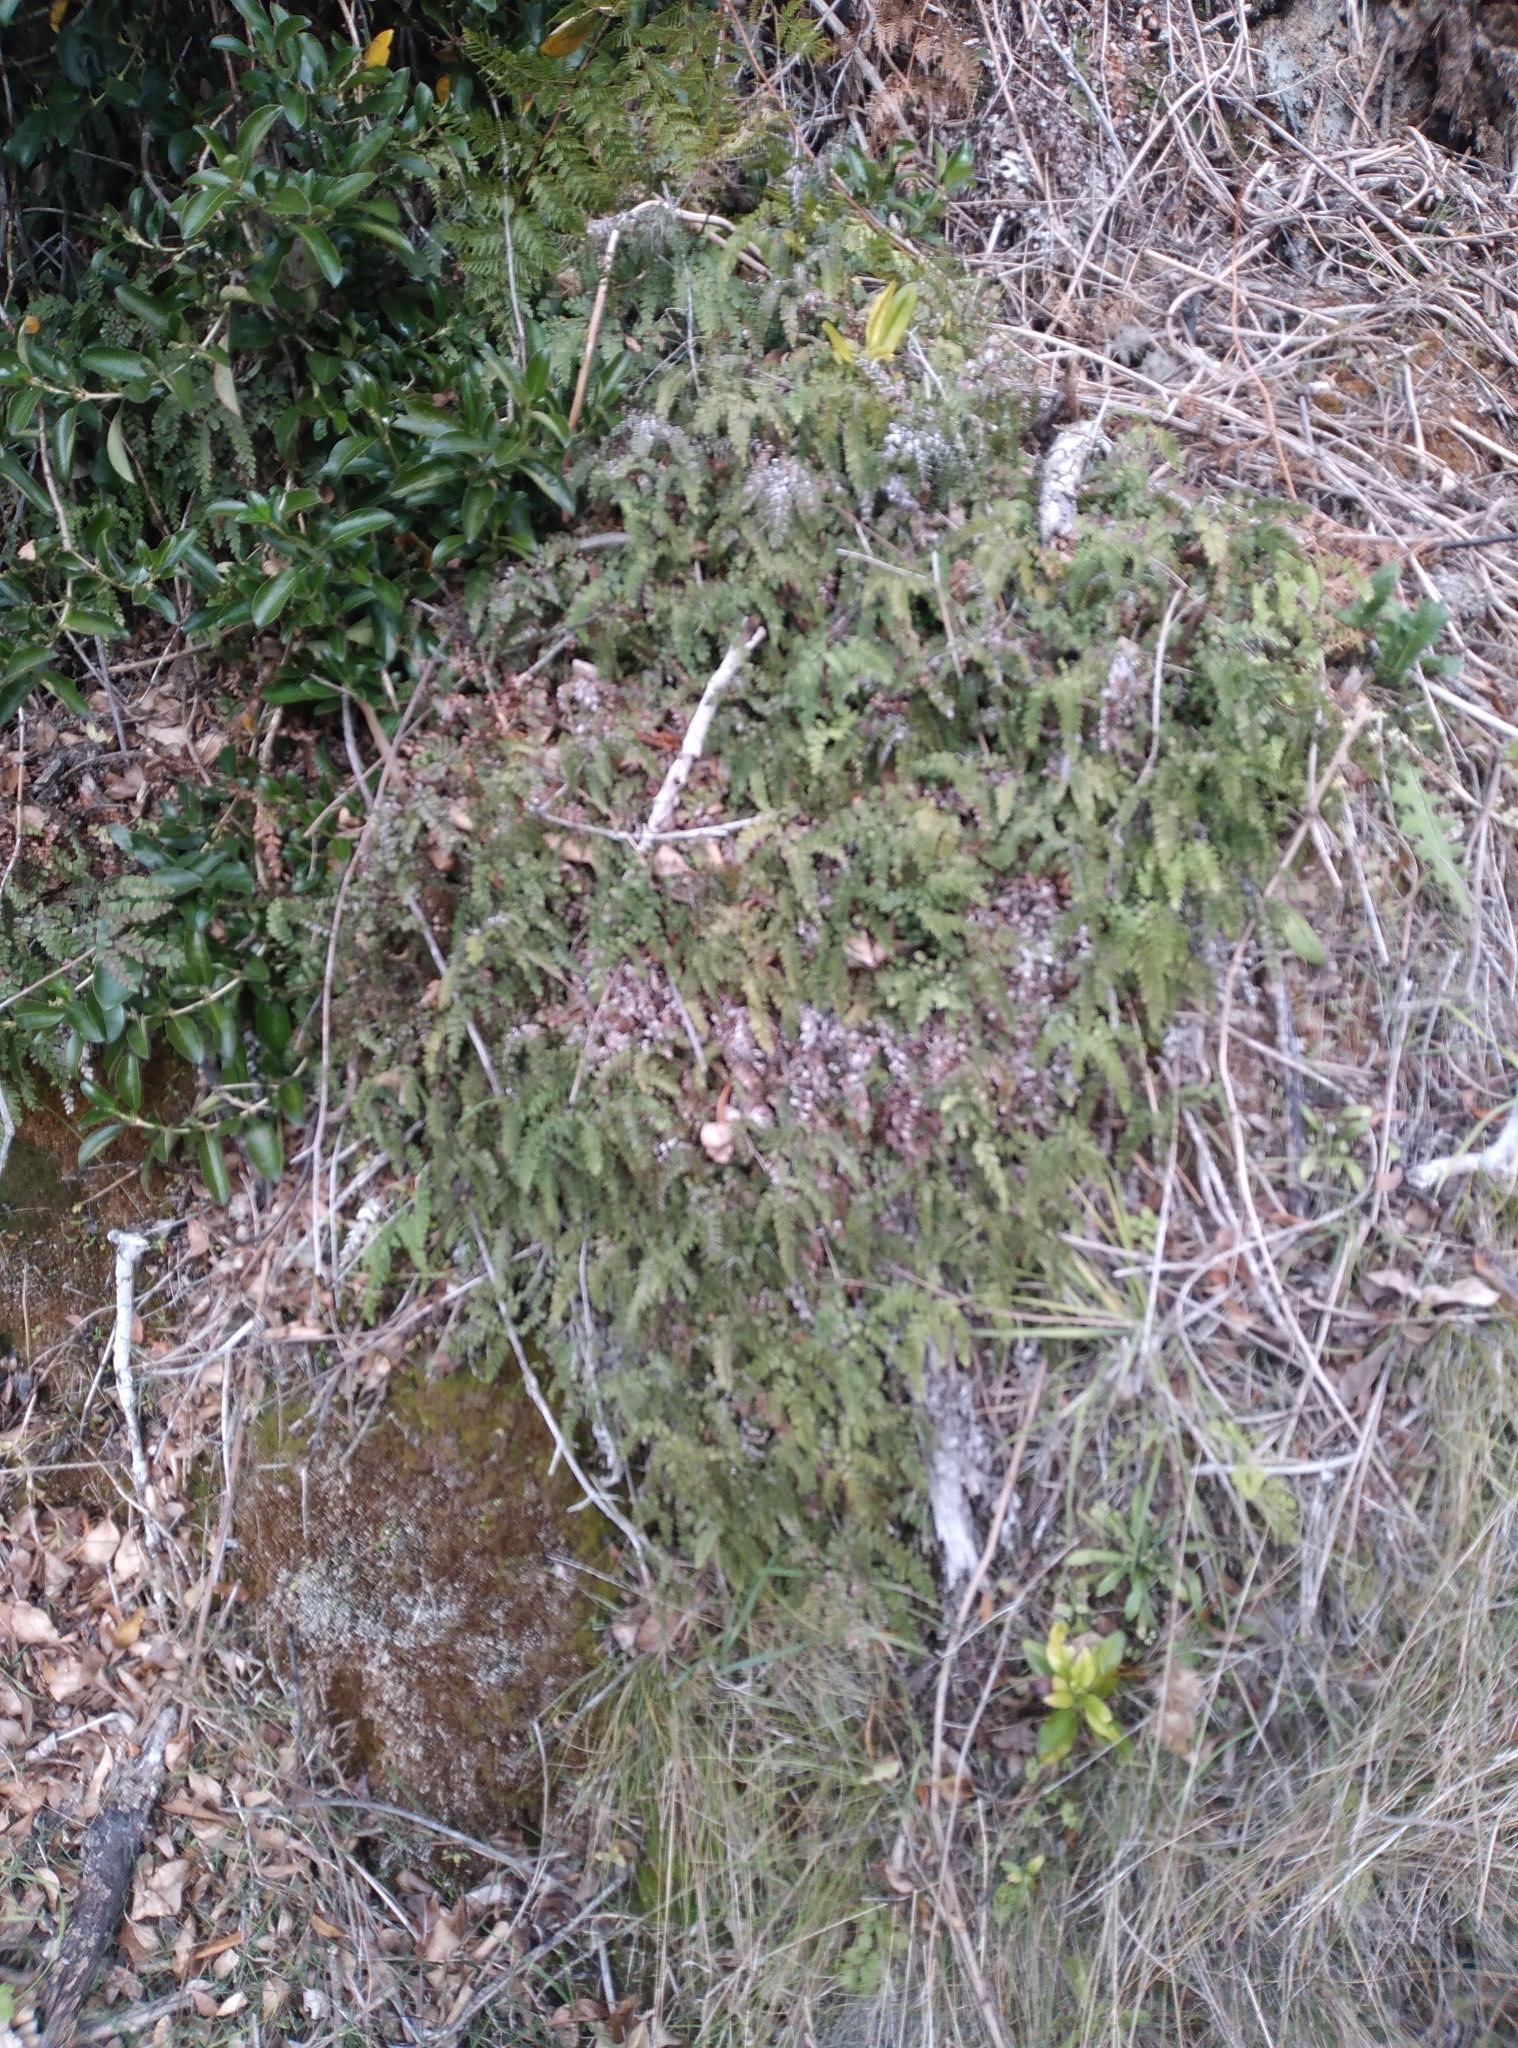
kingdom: Plantae
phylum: Tracheophyta
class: Polypodiopsida
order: Polypodiales
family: Pteridaceae
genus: Adiantum
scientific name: Adiantum cunninghamii
